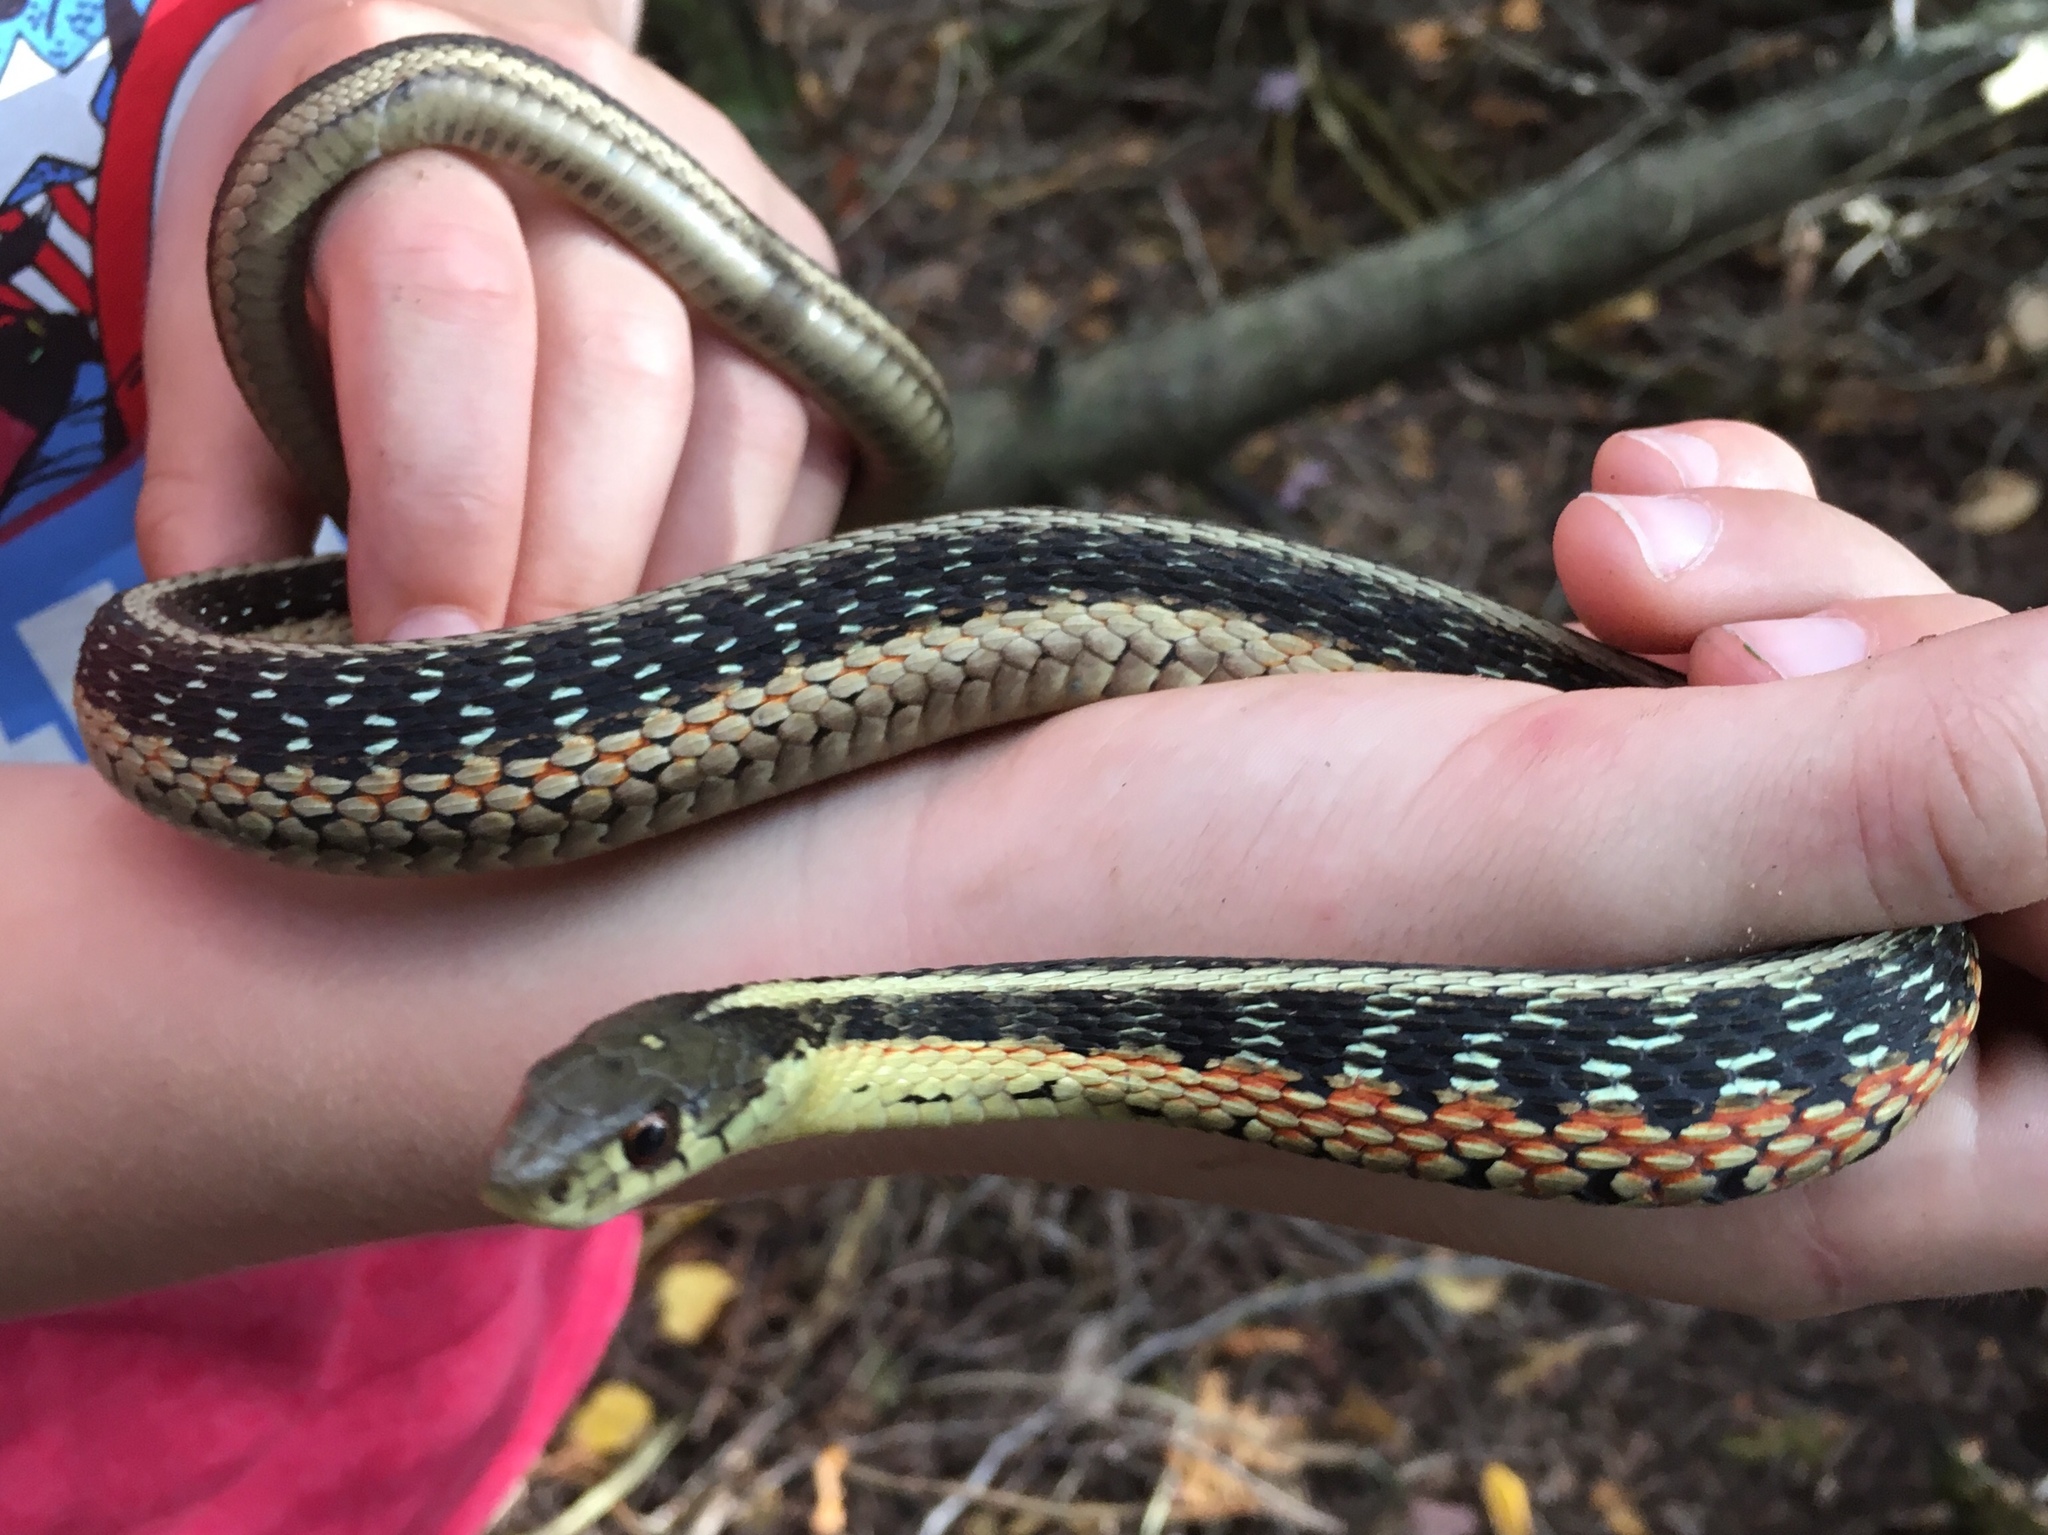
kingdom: Animalia
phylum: Chordata
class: Squamata
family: Colubridae
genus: Thamnophis
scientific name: Thamnophis sirtalis
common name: Common garter snake
